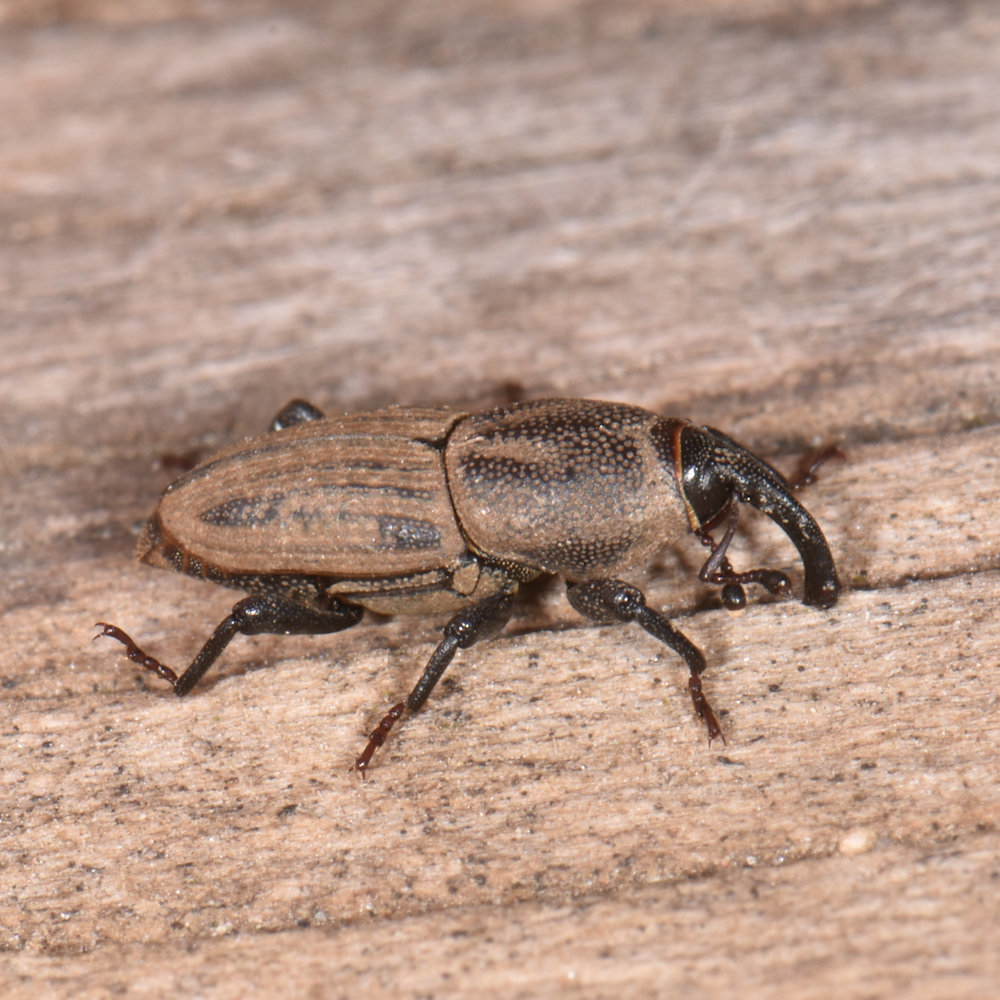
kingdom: Animalia
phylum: Arthropoda
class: Insecta
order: Coleoptera
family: Dryophthoridae
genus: Sphenophorus
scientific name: Sphenophorus interstitialis
